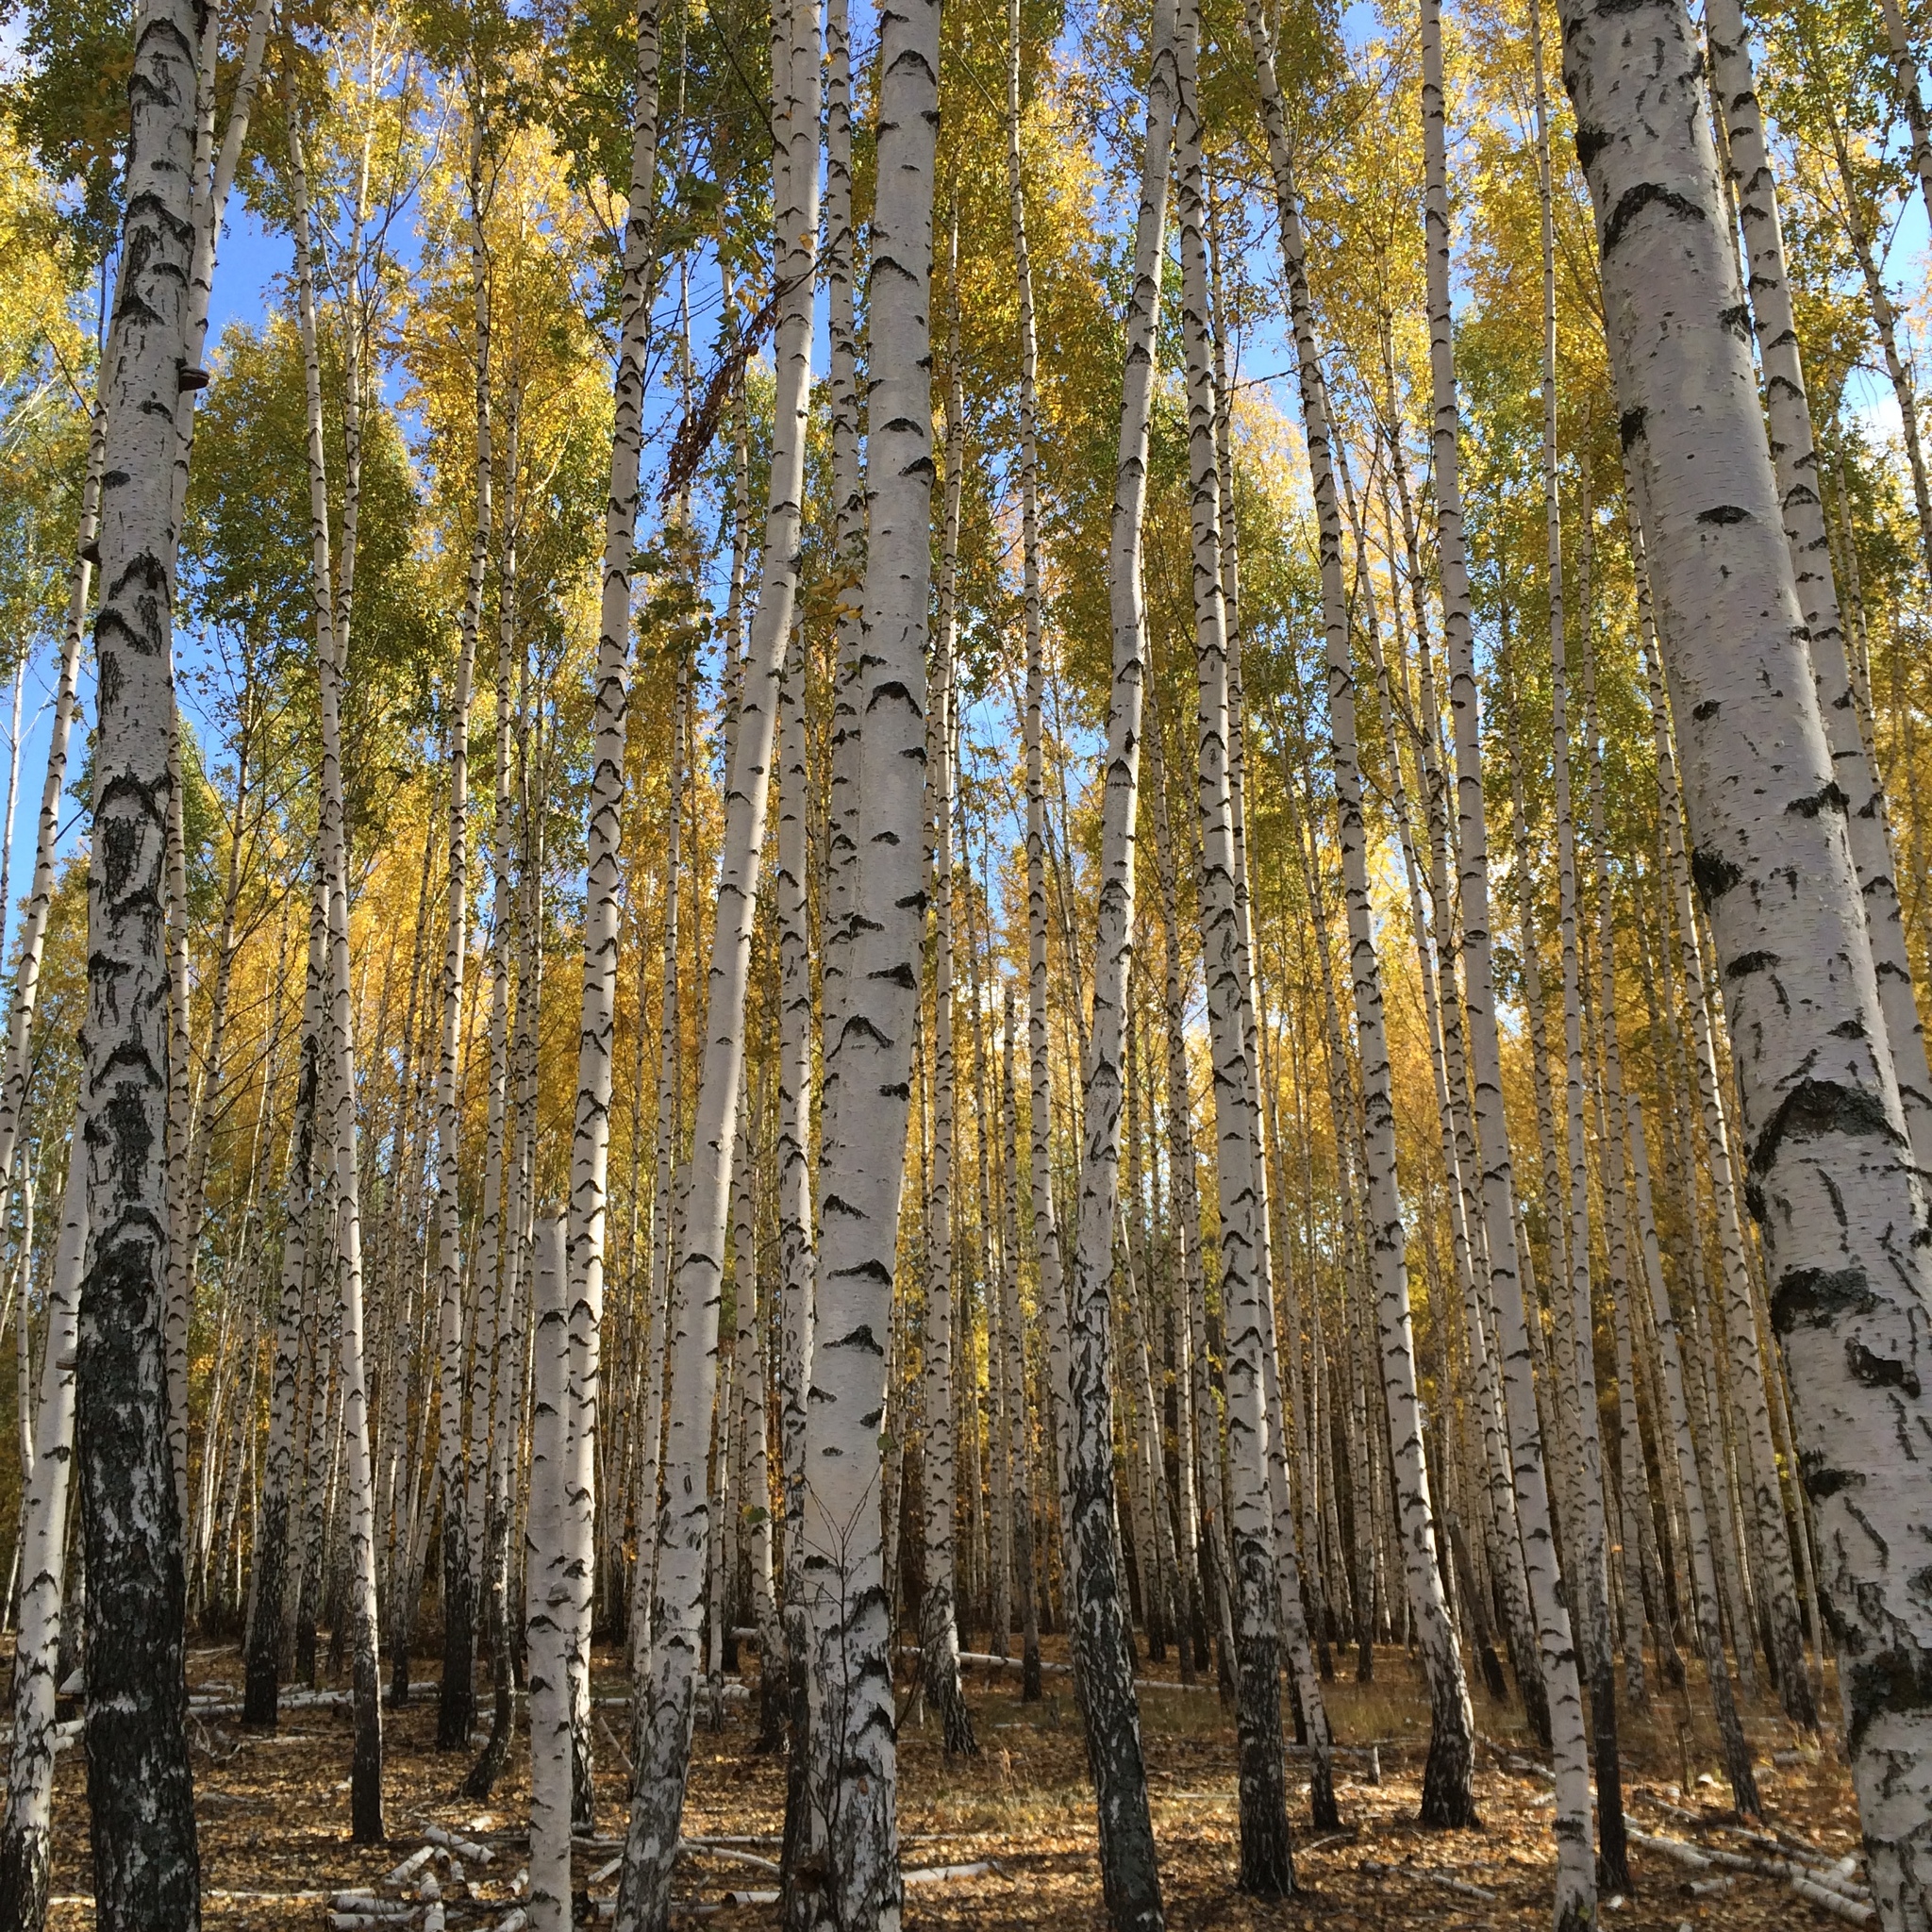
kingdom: Plantae
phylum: Tracheophyta
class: Magnoliopsida
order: Fagales
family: Betulaceae
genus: Betula
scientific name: Betula pendula
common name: Silver birch
